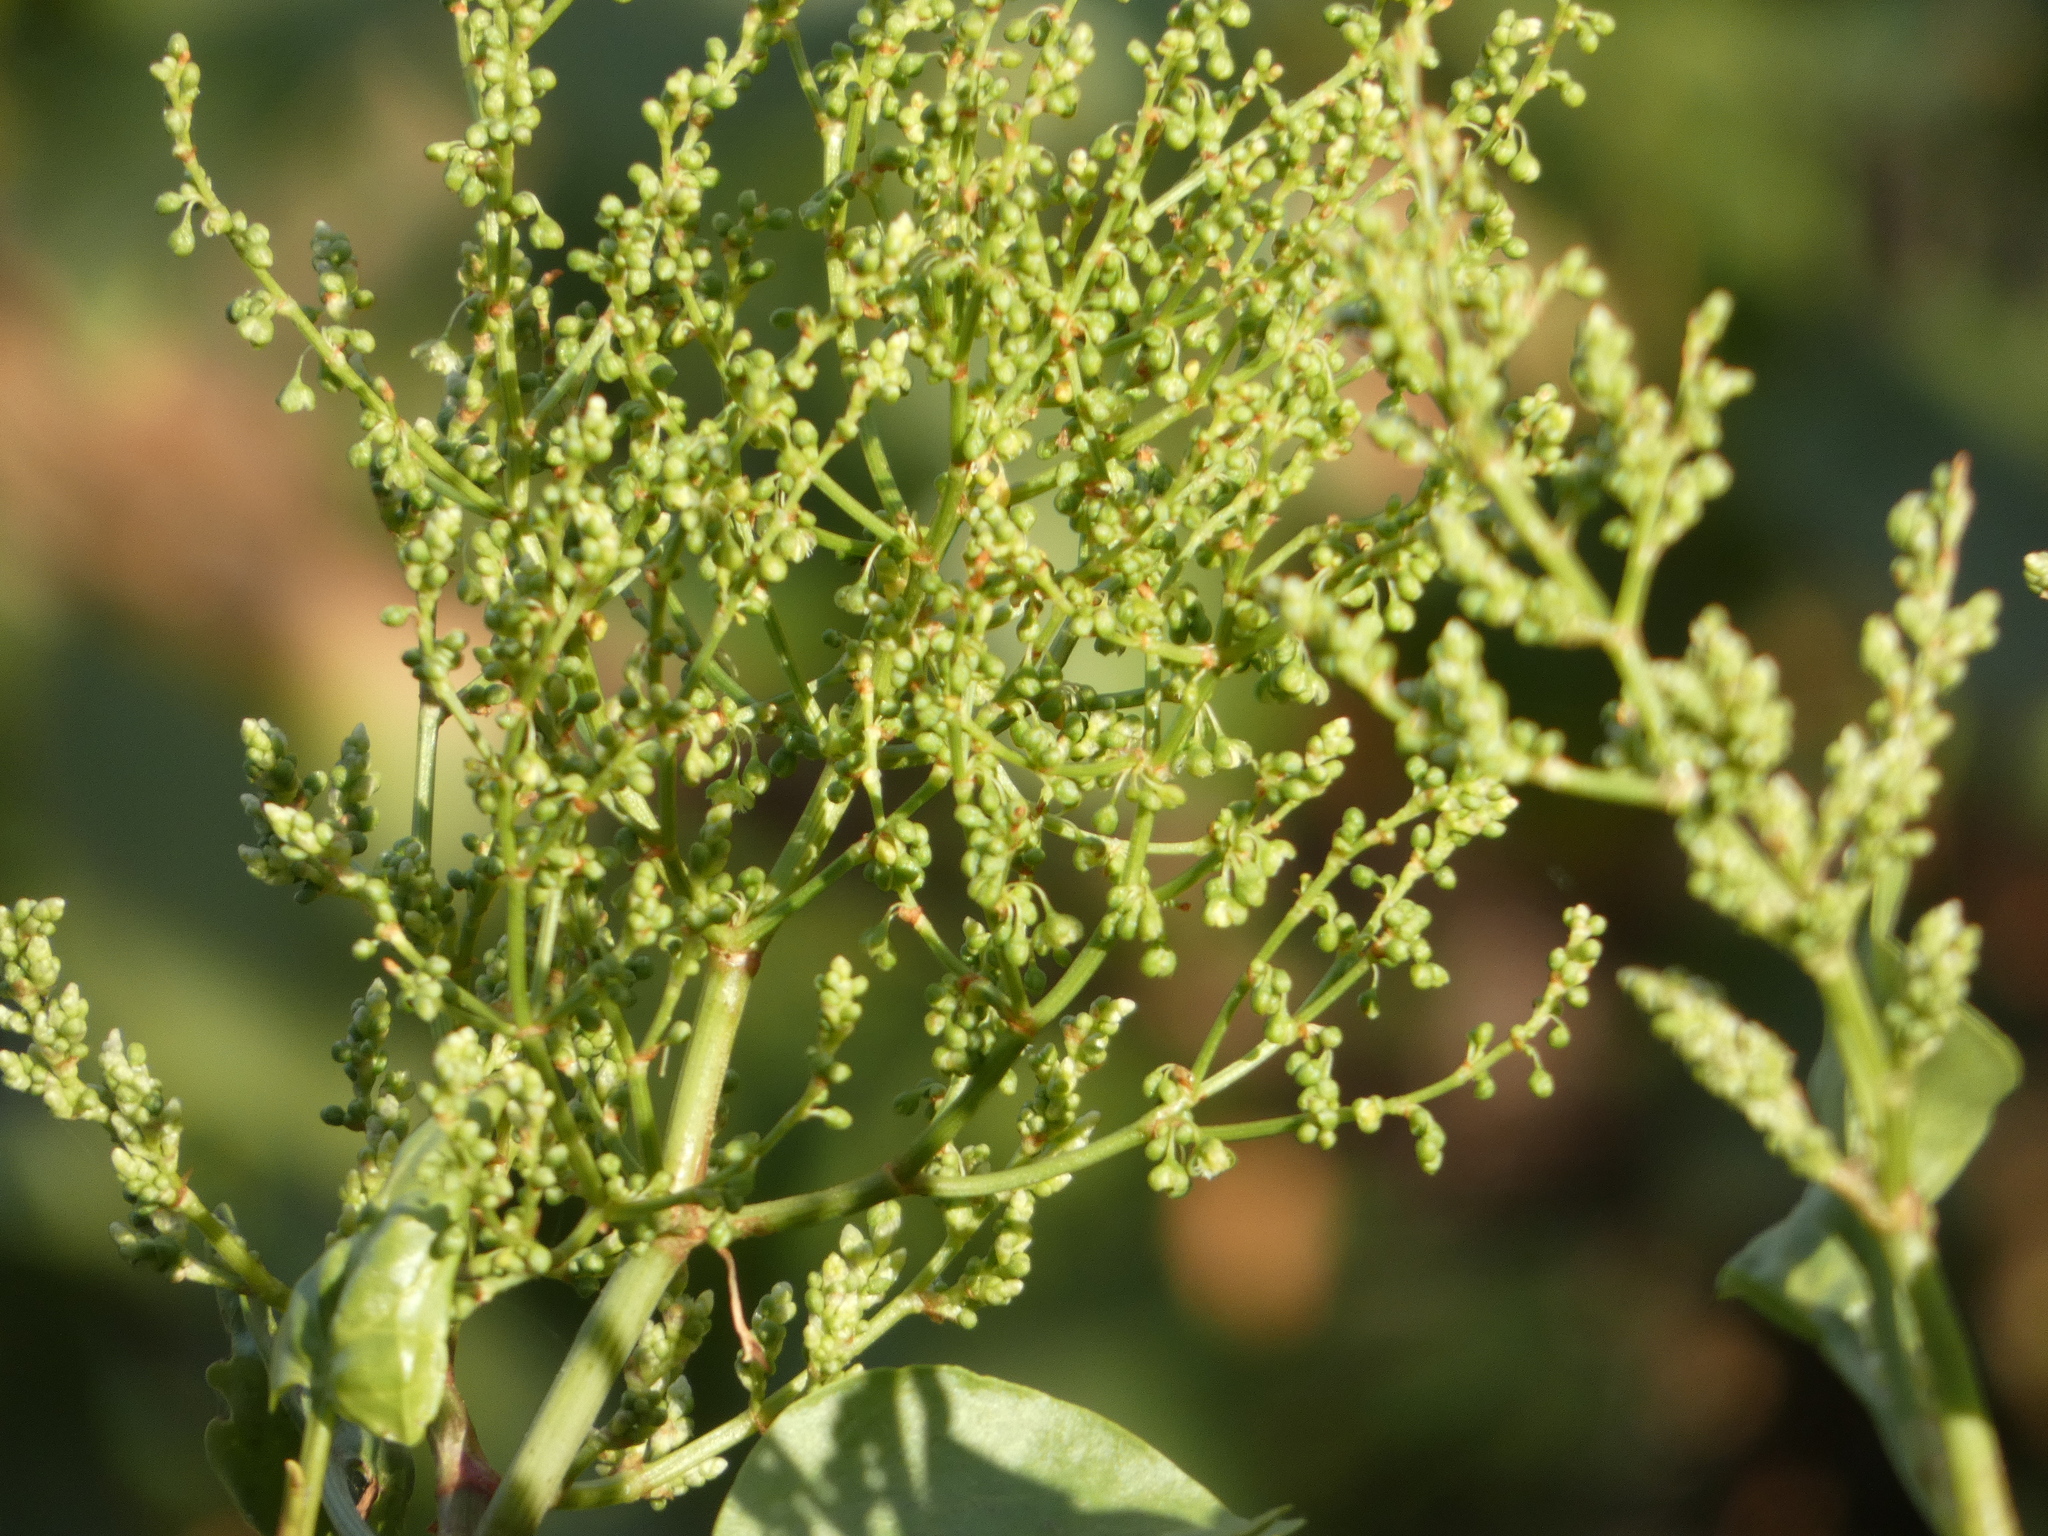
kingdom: Plantae
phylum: Tracheophyta
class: Magnoliopsida
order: Caryophyllales
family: Polygonaceae
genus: Rumex
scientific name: Rumex lunaria
